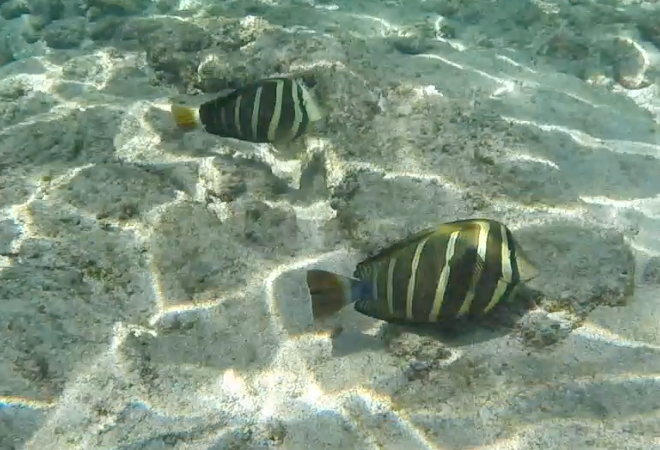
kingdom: Animalia
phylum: Chordata
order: Perciformes
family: Acanthuridae
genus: Zebrasoma
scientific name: Zebrasoma veliferum
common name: Sailfin surgeonfish
